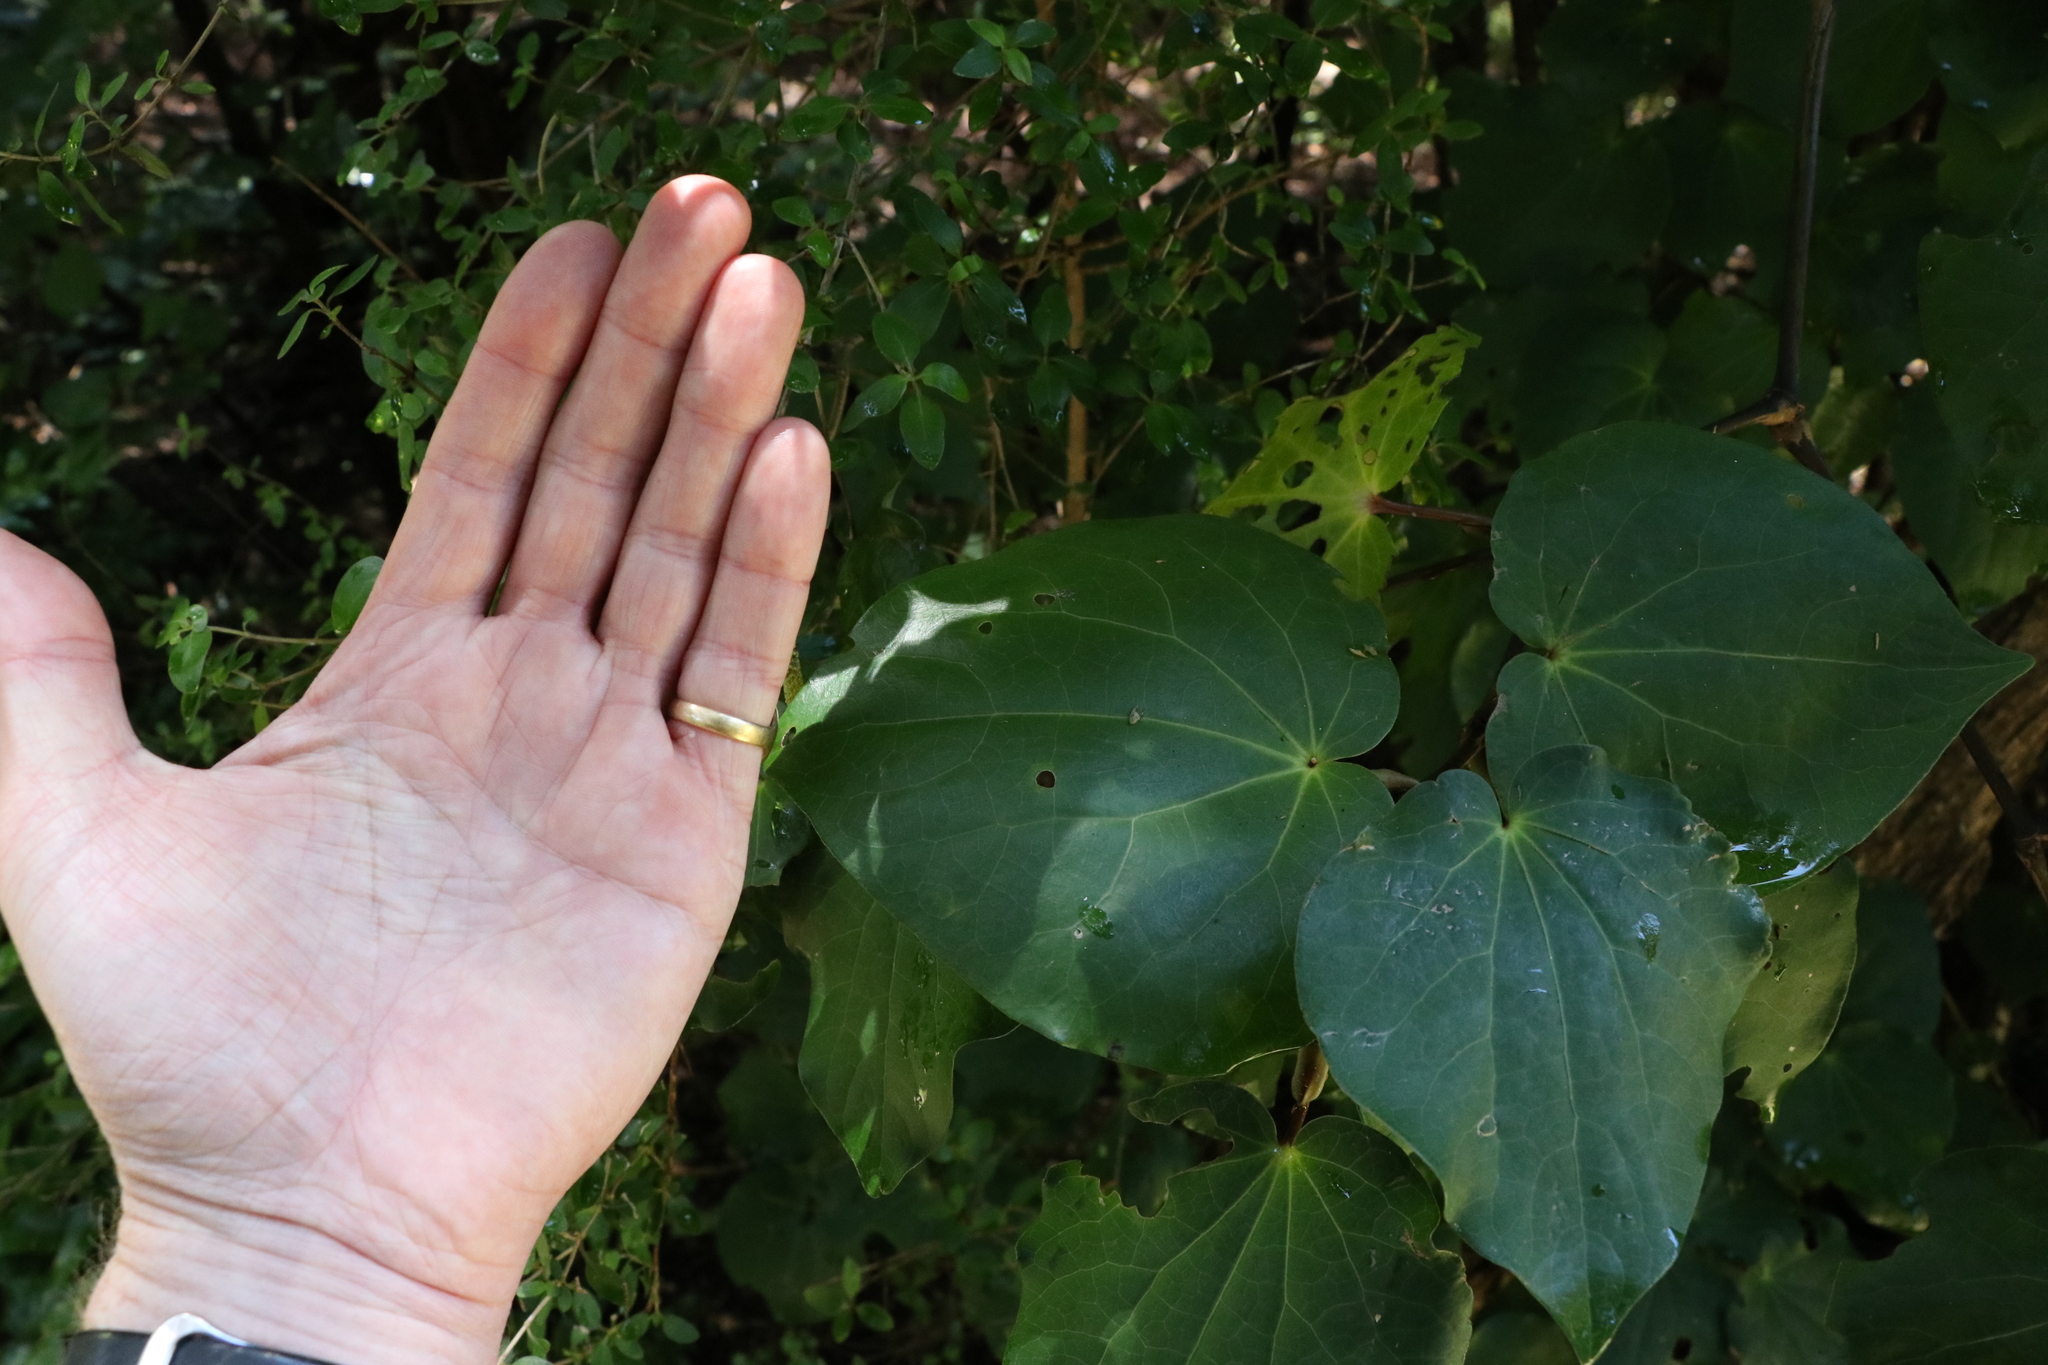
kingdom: Plantae
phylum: Tracheophyta
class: Magnoliopsida
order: Piperales
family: Piperaceae
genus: Macropiper
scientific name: Macropiper excelsum
